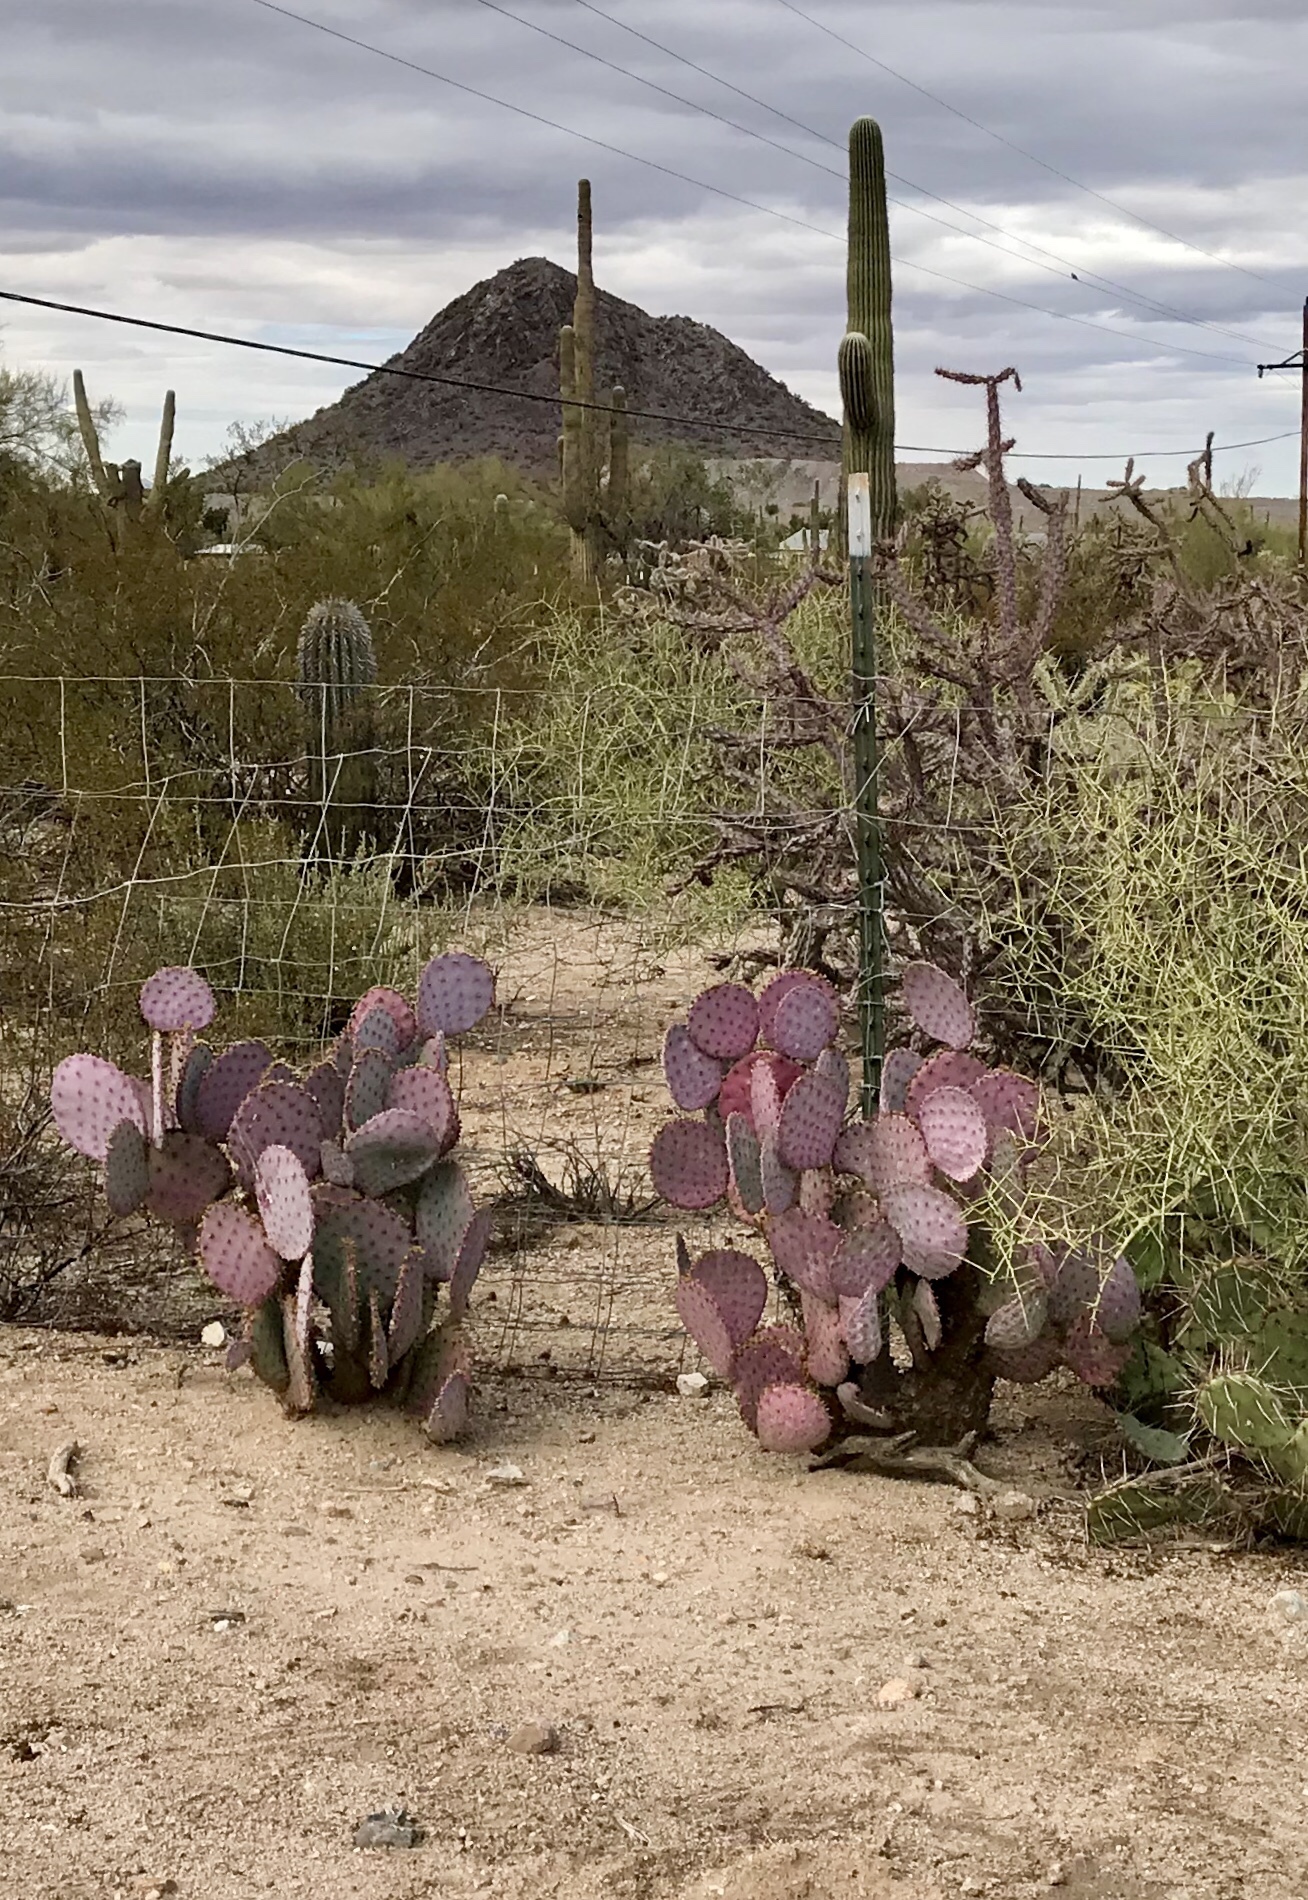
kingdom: Plantae
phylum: Tracheophyta
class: Magnoliopsida
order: Caryophyllales
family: Cactaceae
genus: Opuntia
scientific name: Opuntia gosseliniana
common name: Violet prickly-pear
